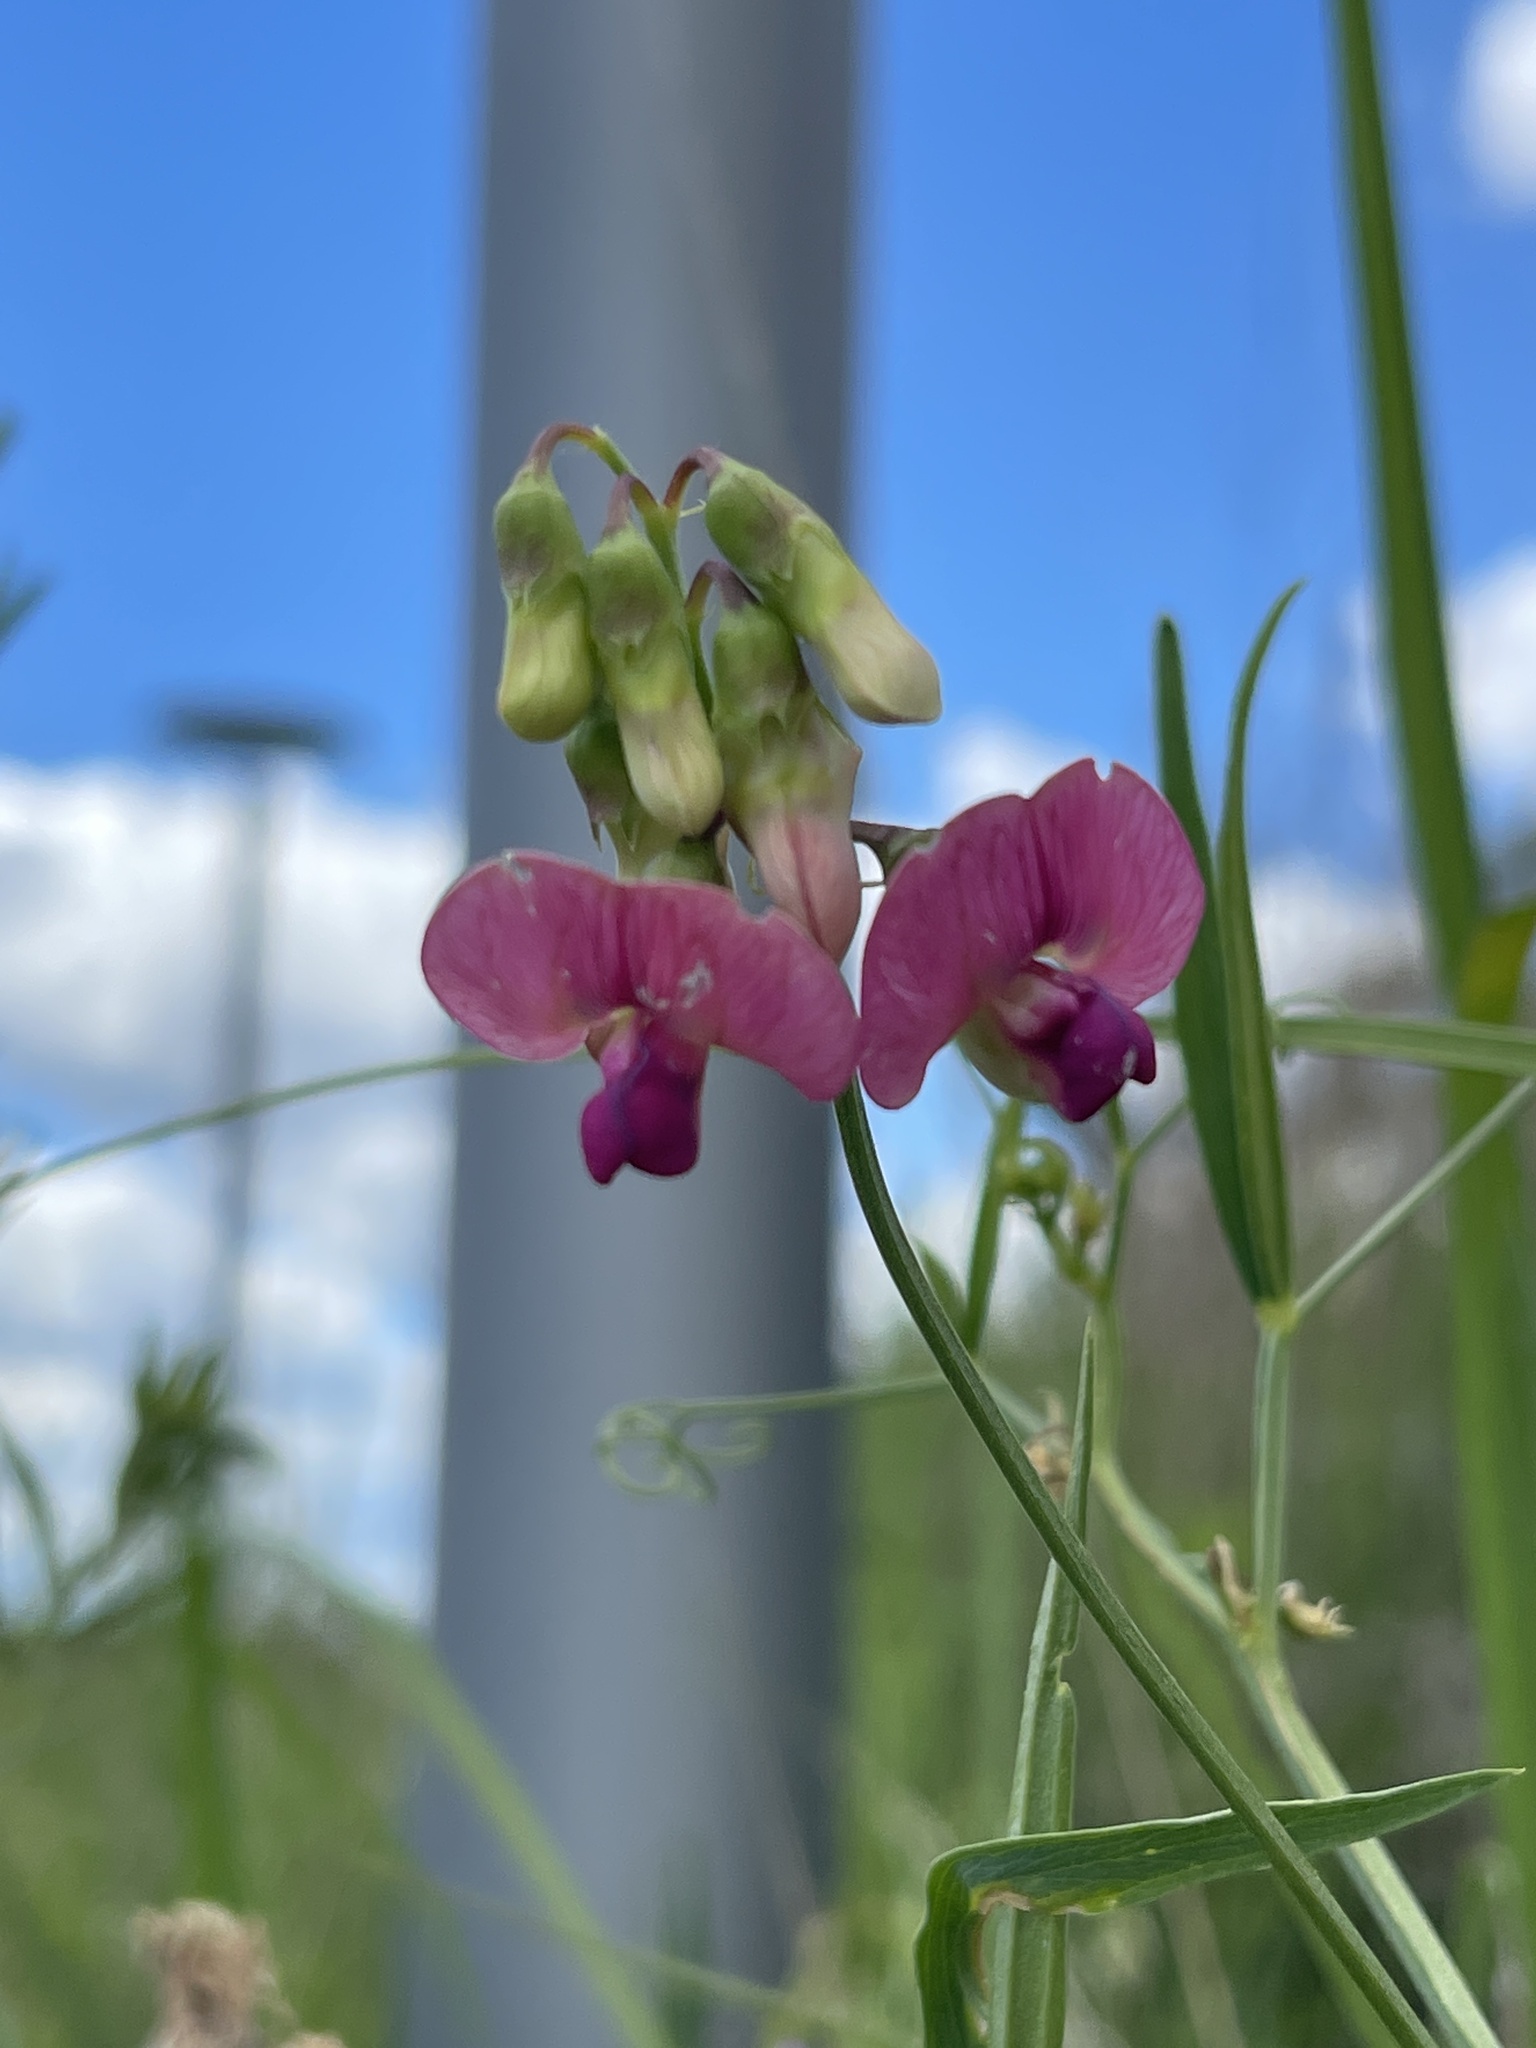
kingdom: Plantae
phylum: Tracheophyta
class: Magnoliopsida
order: Fabales
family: Fabaceae
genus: Lathyrus
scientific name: Lathyrus sylvestris
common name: Flat pea
